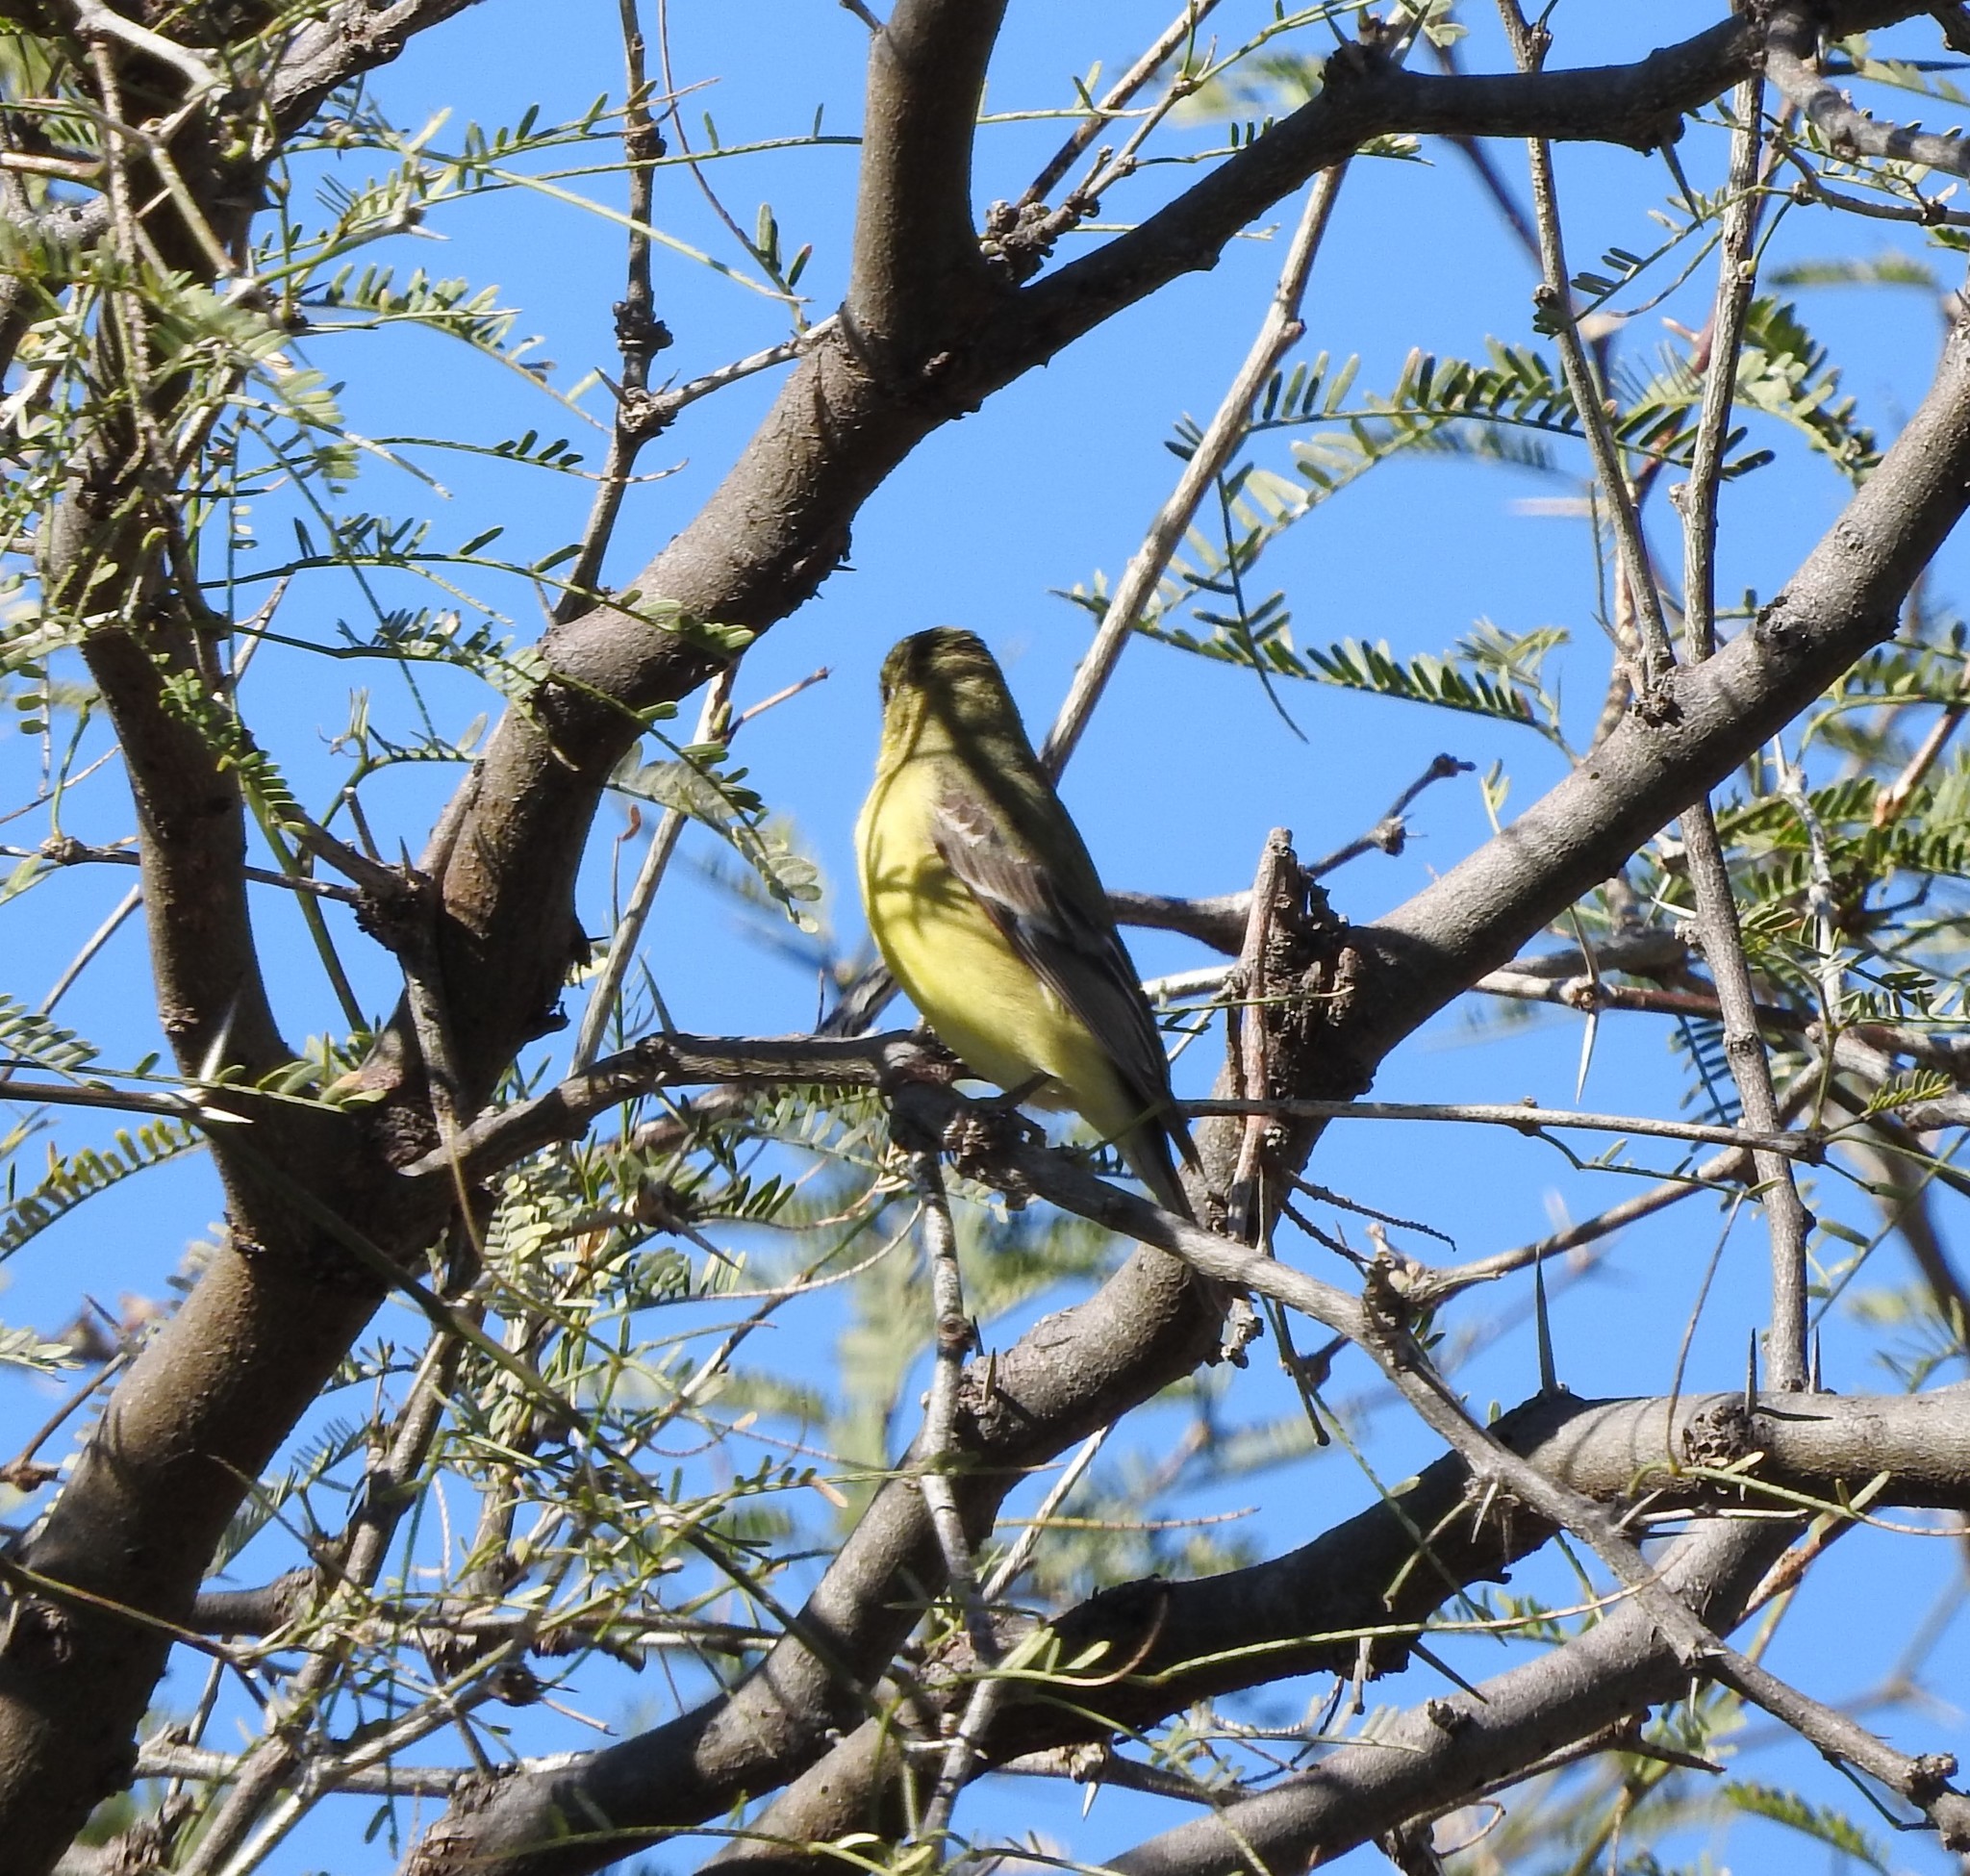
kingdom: Animalia
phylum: Chordata
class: Aves
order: Passeriformes
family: Fringillidae
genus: Spinus
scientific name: Spinus psaltria
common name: Lesser goldfinch
